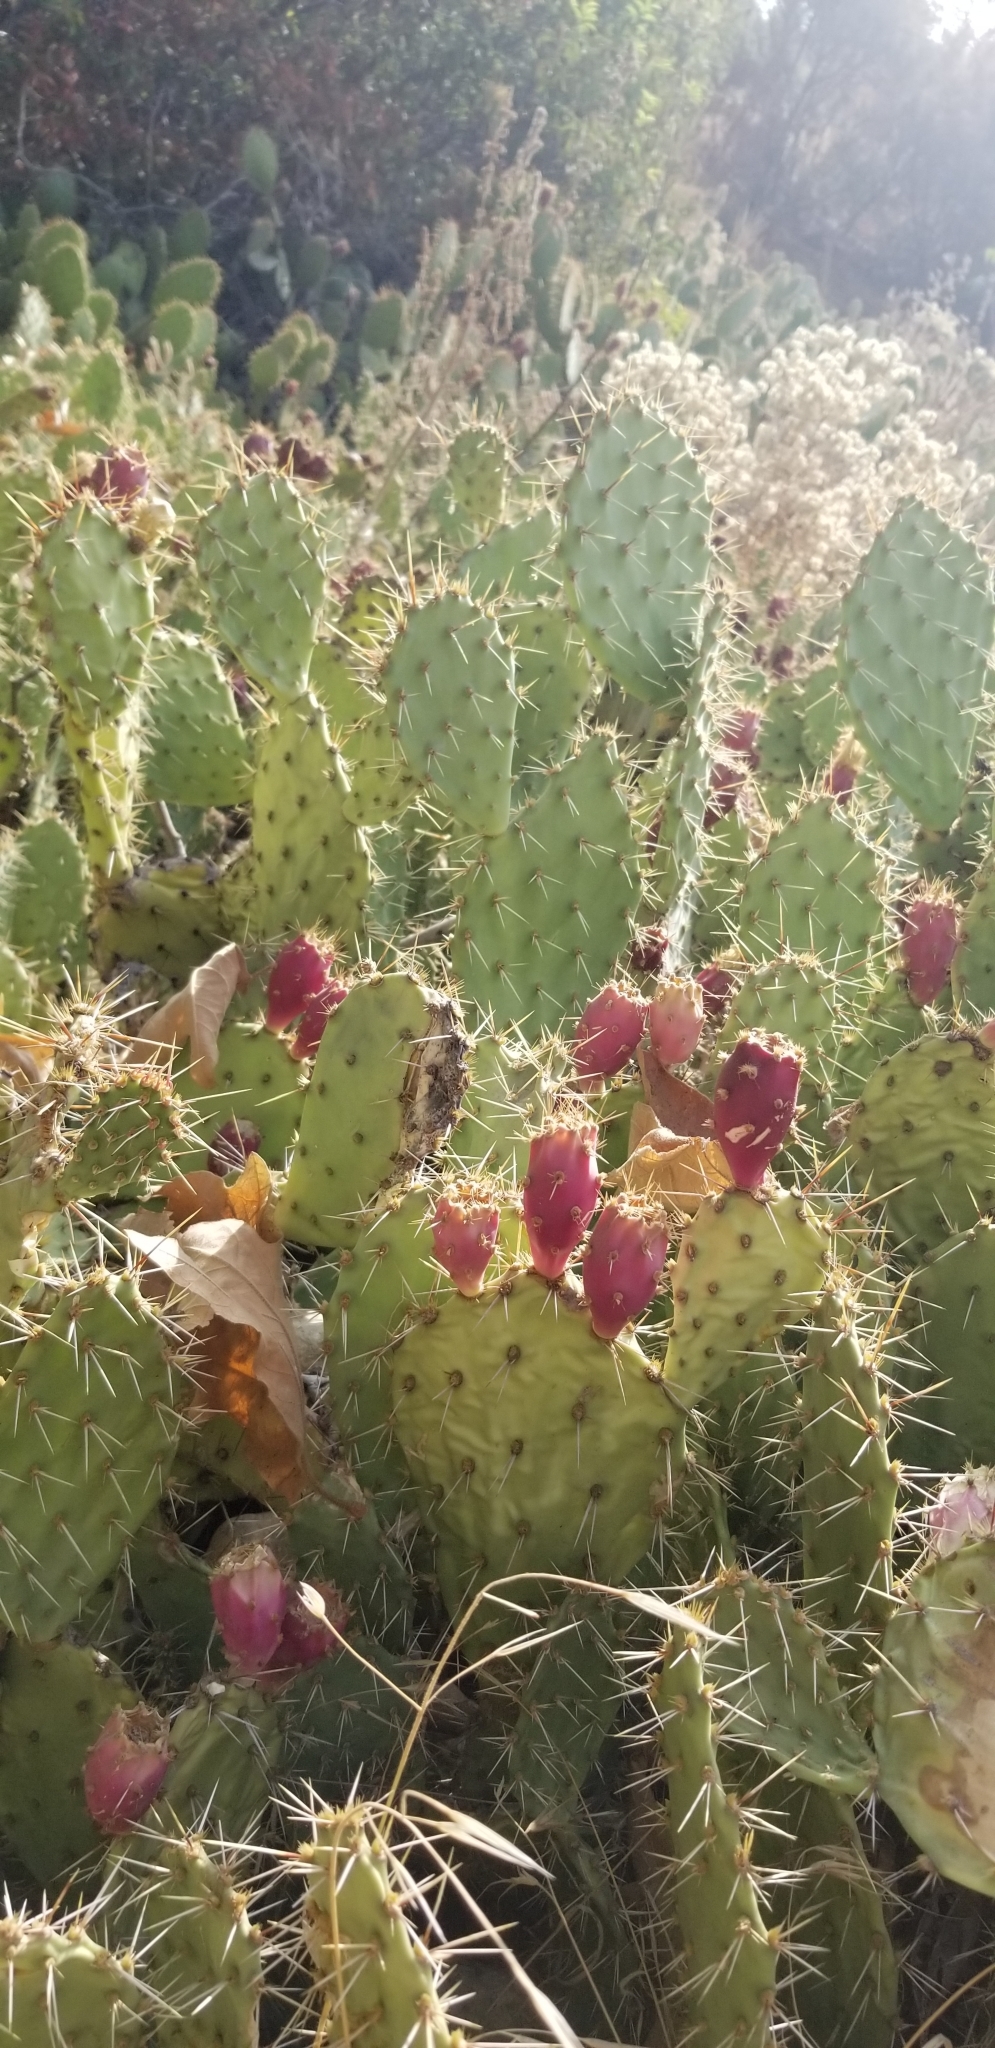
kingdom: Plantae
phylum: Tracheophyta
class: Magnoliopsida
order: Caryophyllales
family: Cactaceae
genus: Opuntia
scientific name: Opuntia littoralis
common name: Coastal prickly-pear
